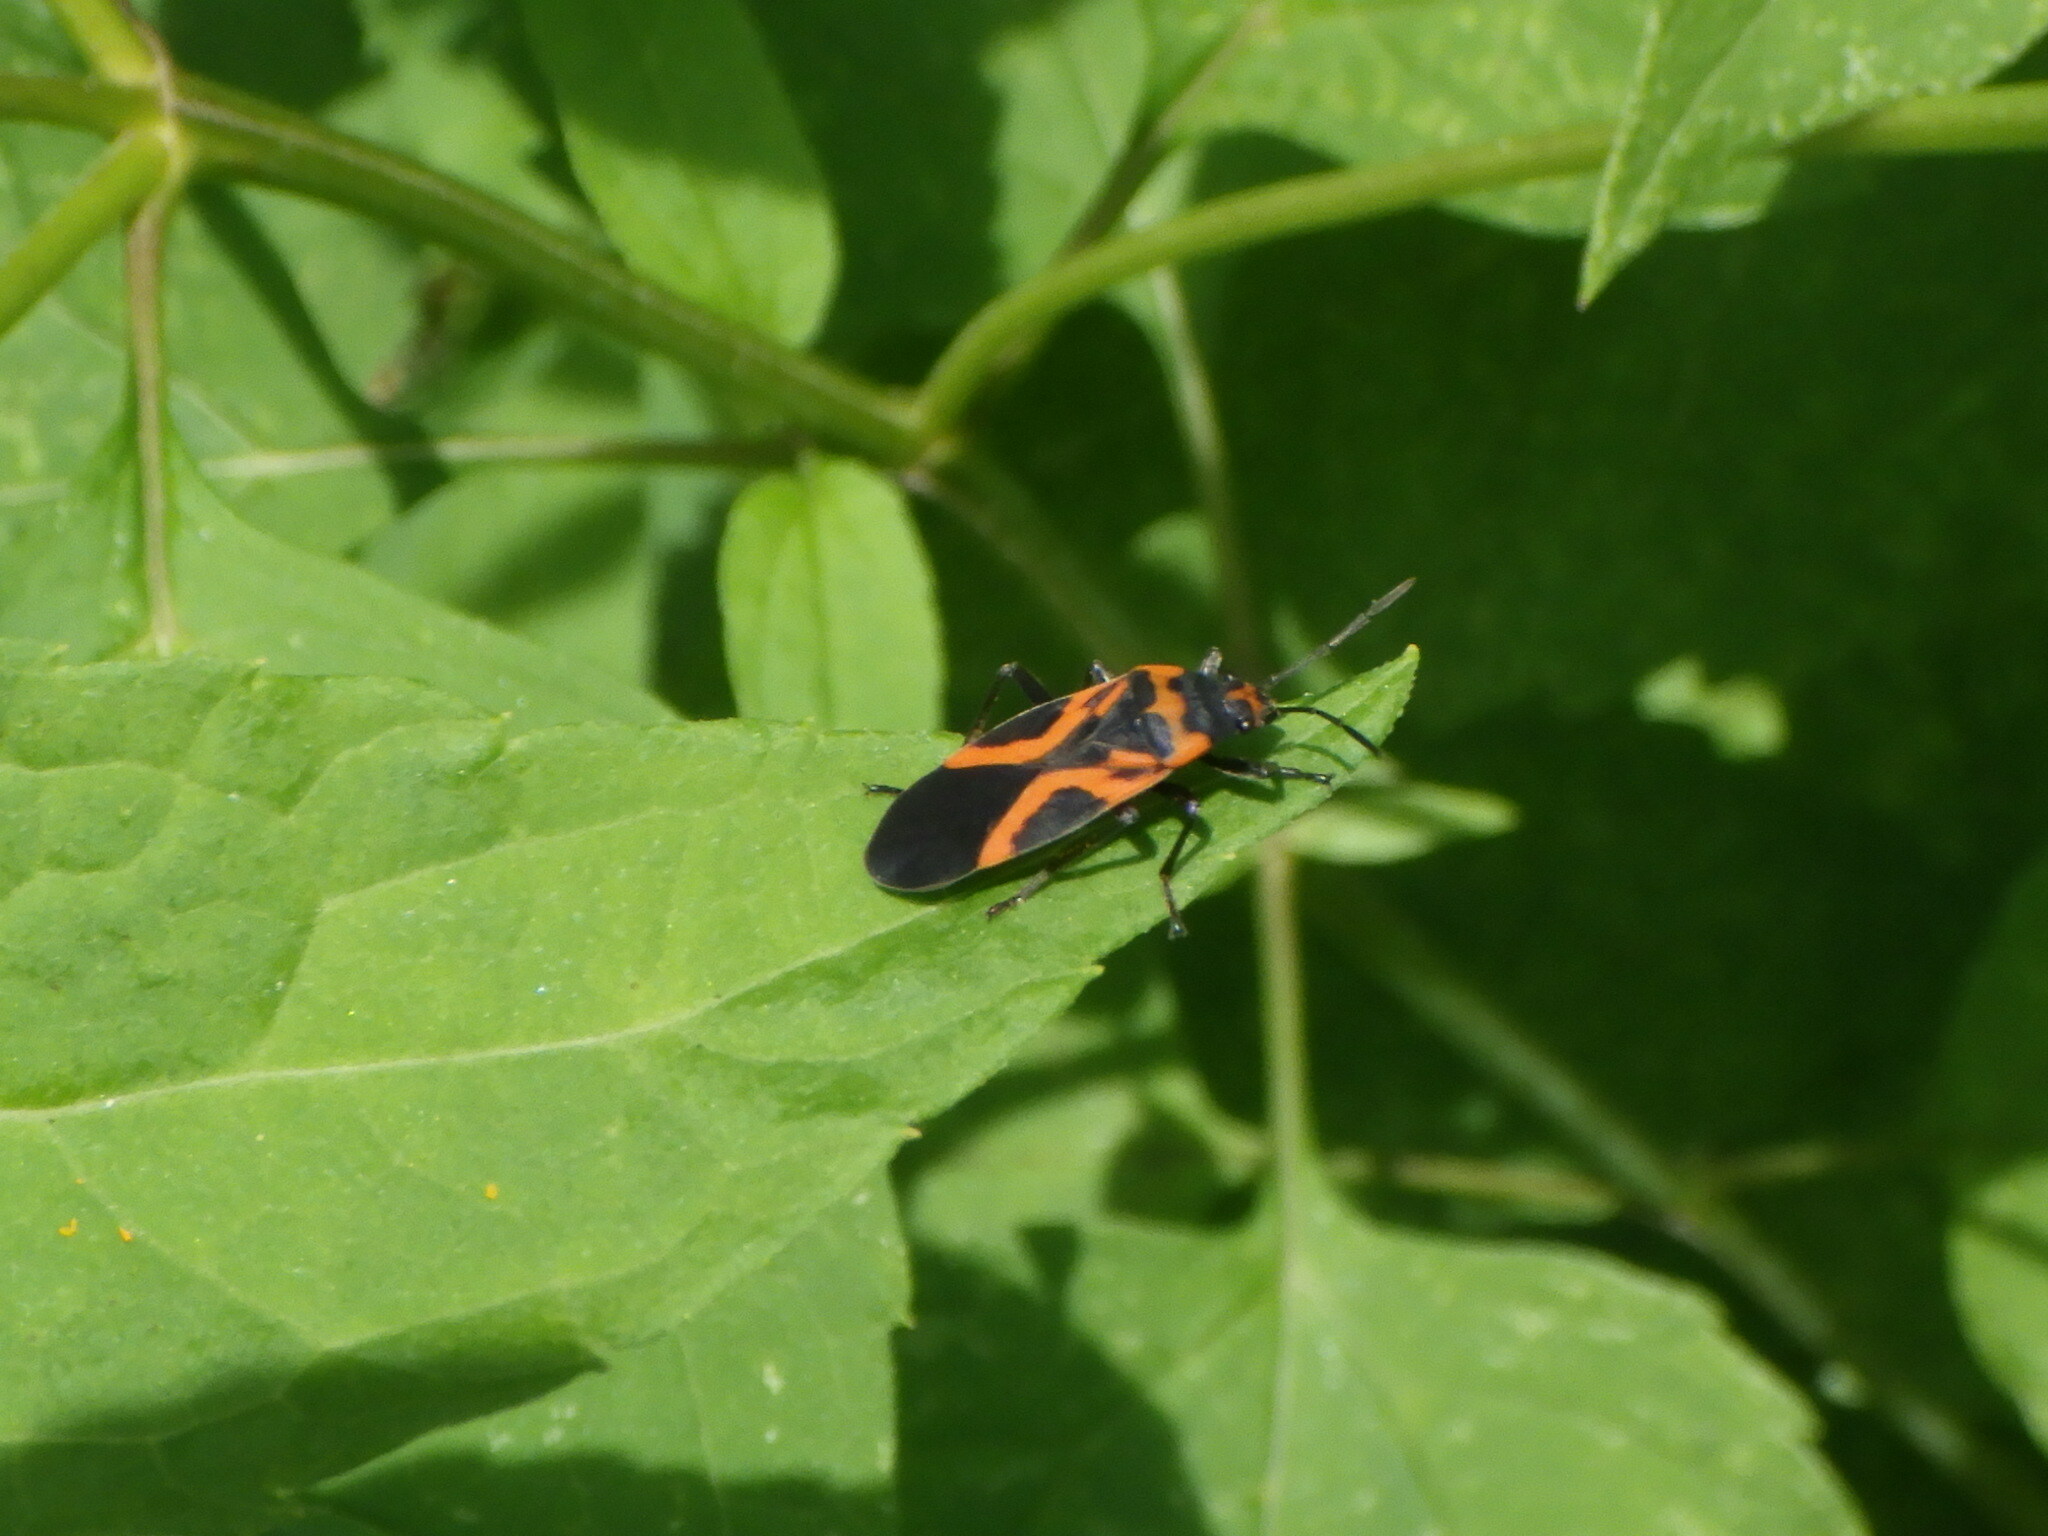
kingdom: Animalia
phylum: Arthropoda
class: Insecta
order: Hemiptera
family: Lygaeidae
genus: Lygaeus
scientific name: Lygaeus turcicus
